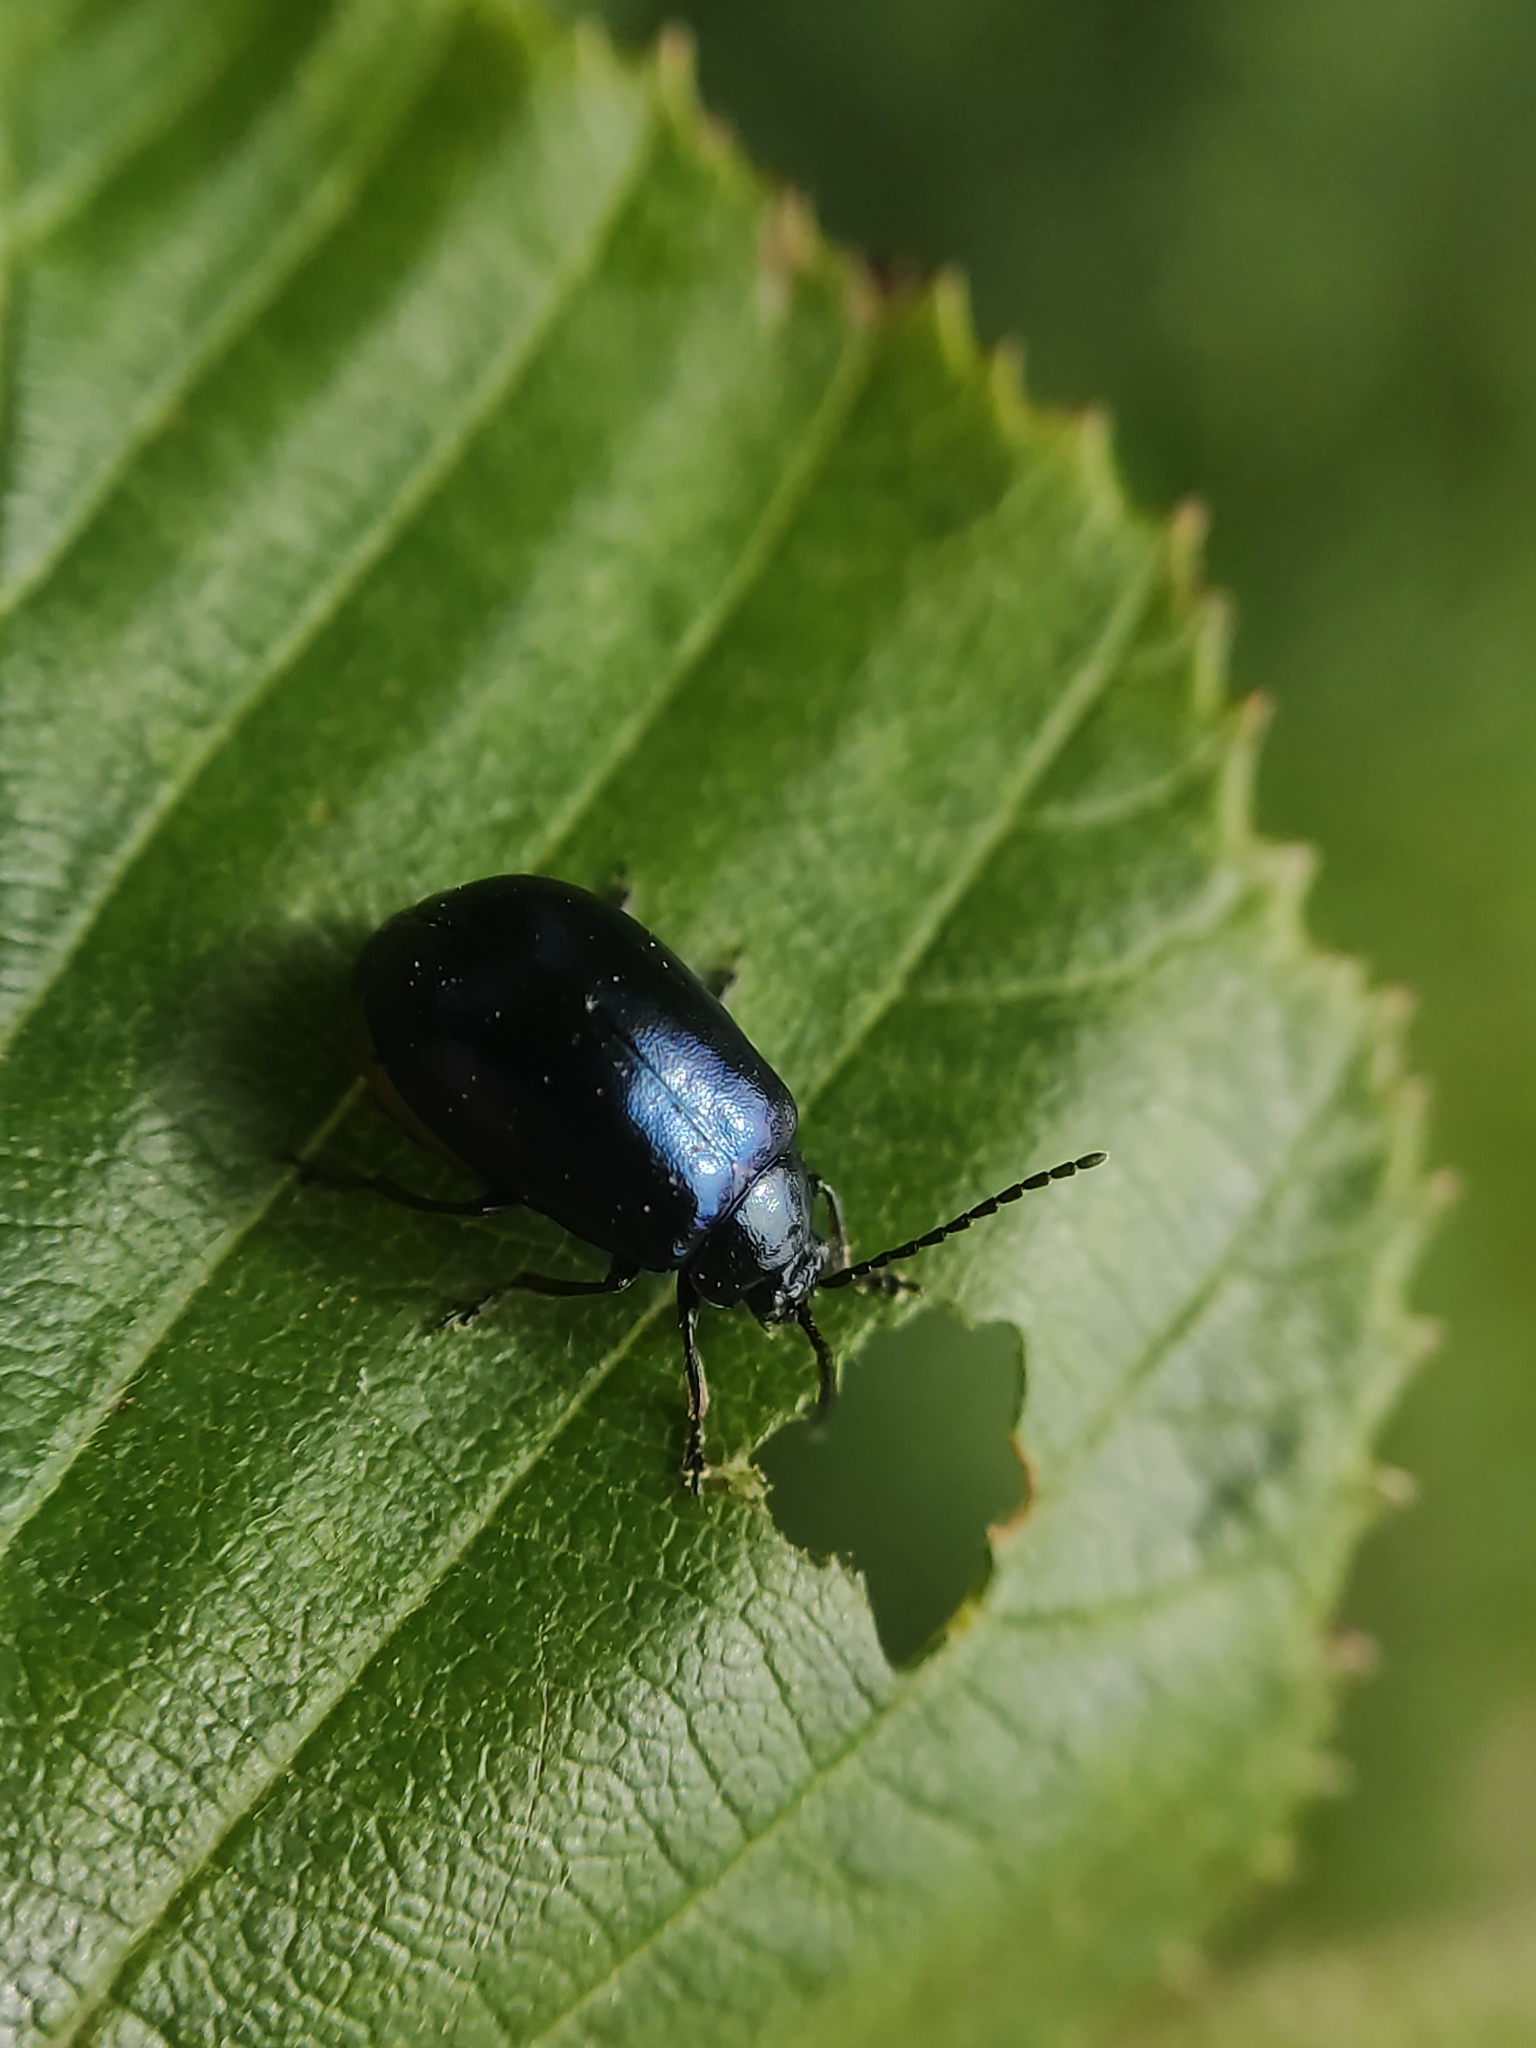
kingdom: Animalia
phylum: Arthropoda
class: Insecta
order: Coleoptera
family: Chrysomelidae
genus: Agelastica
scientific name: Agelastica alni
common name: Alder leaf beetle
